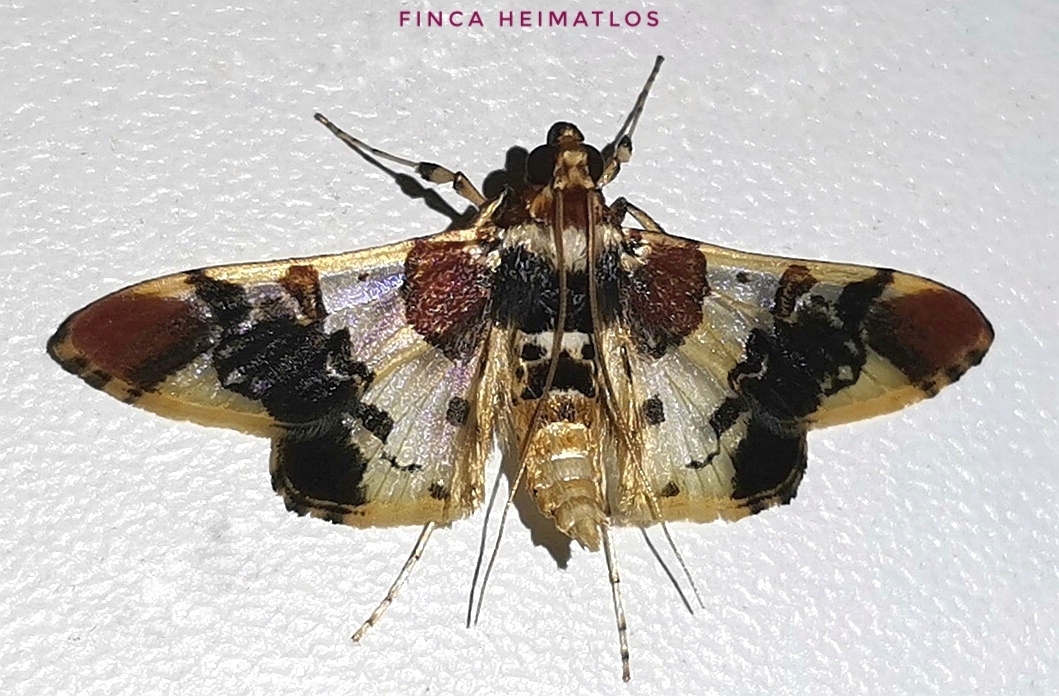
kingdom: Animalia
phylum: Arthropoda
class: Insecta
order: Lepidoptera
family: Crambidae
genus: Syngamilyta
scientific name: Syngamilyta apicolor
